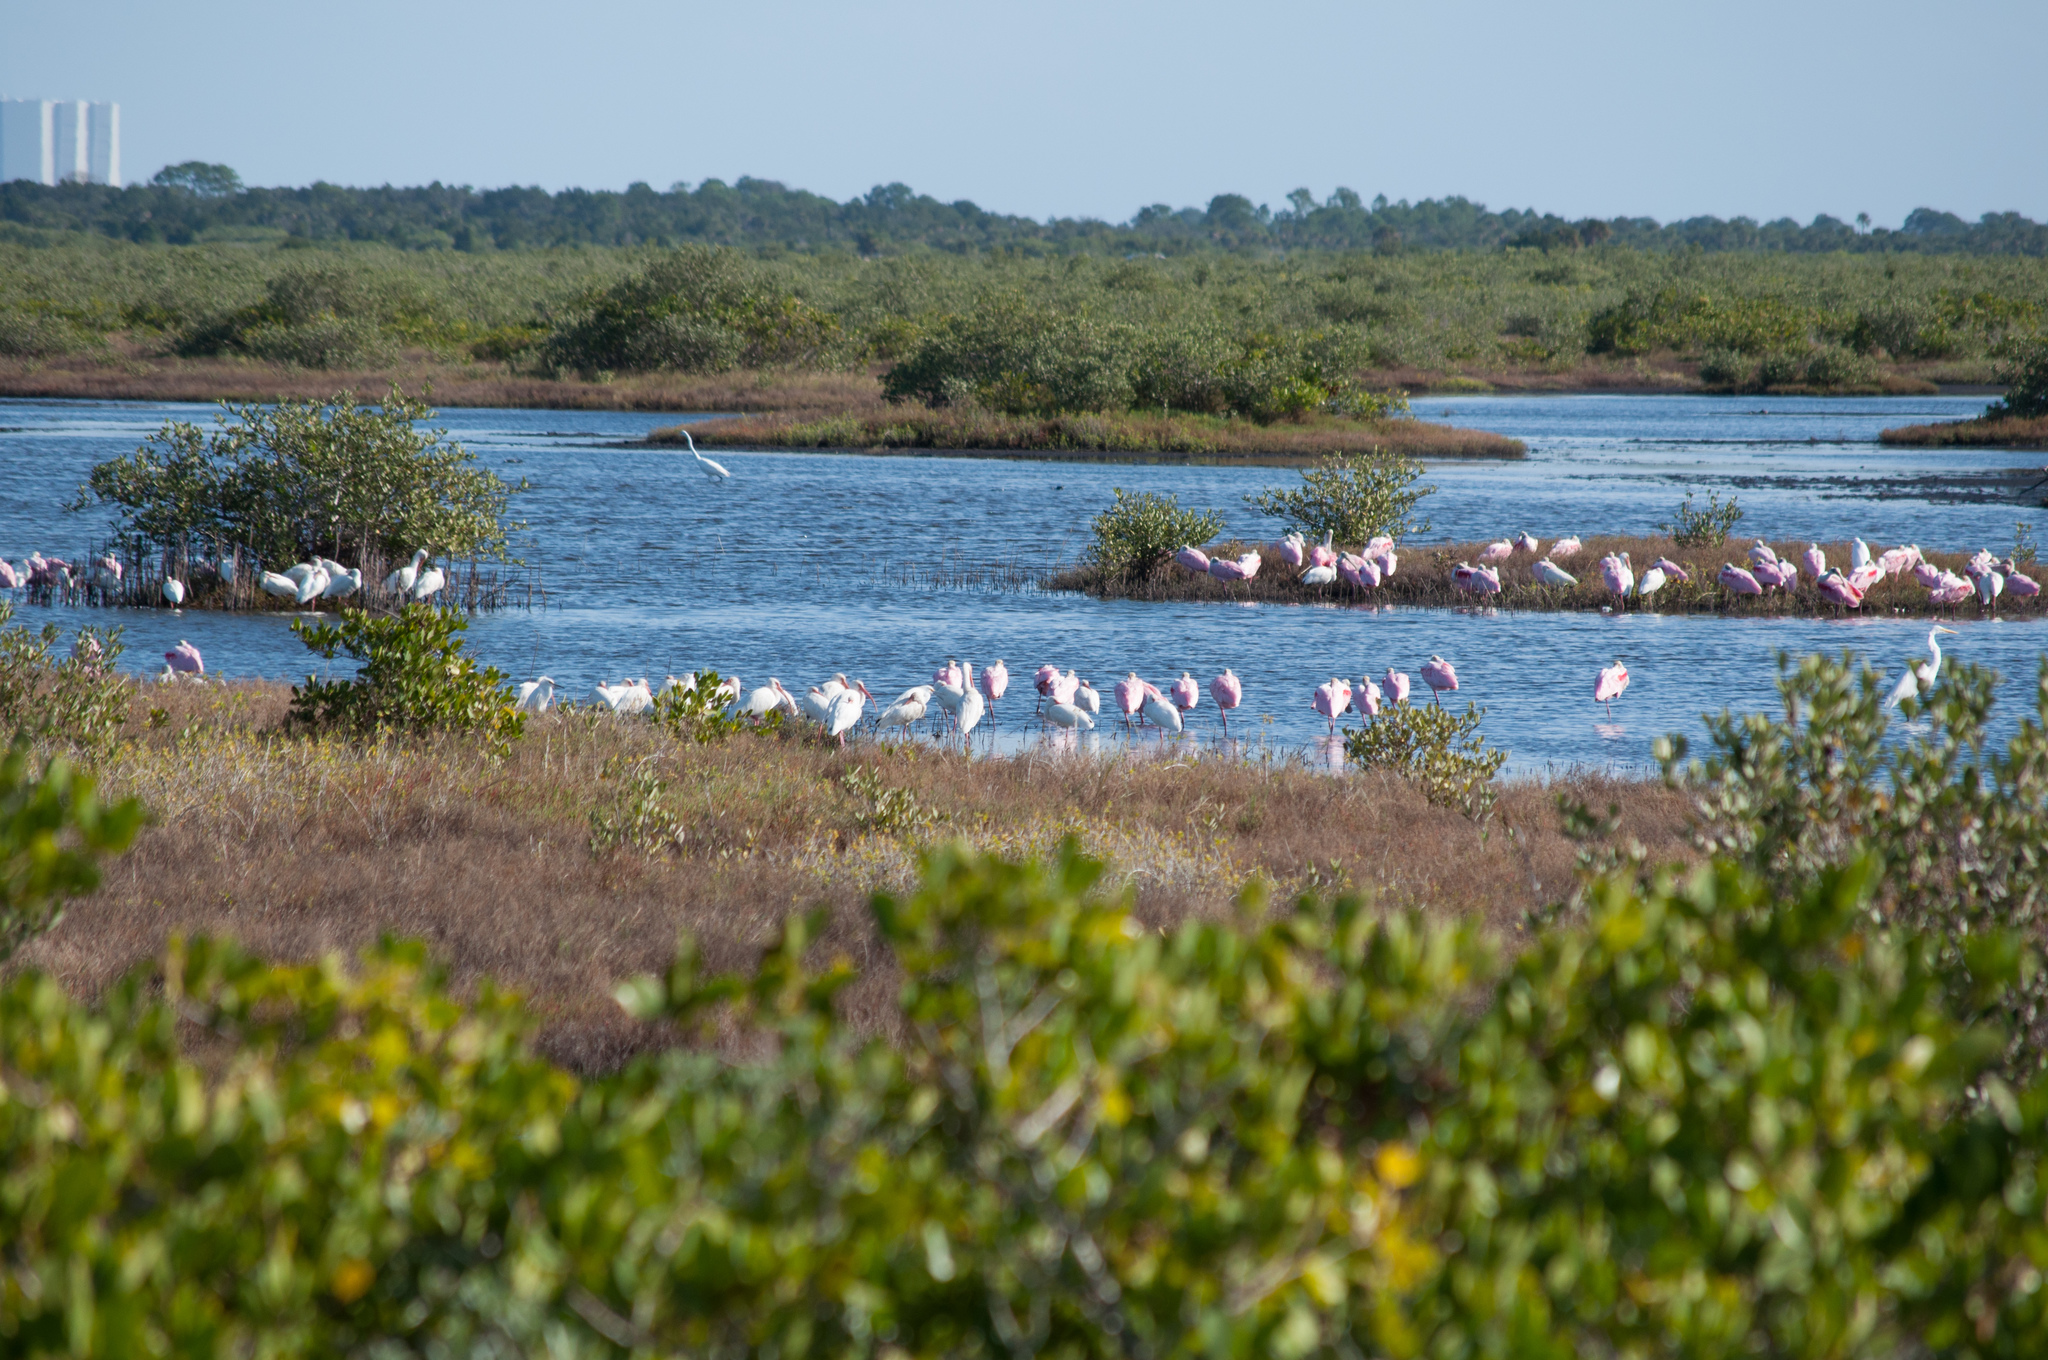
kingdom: Animalia
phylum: Chordata
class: Aves
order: Pelecaniformes
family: Threskiornithidae
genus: Platalea
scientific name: Platalea ajaja
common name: Roseate spoonbill
